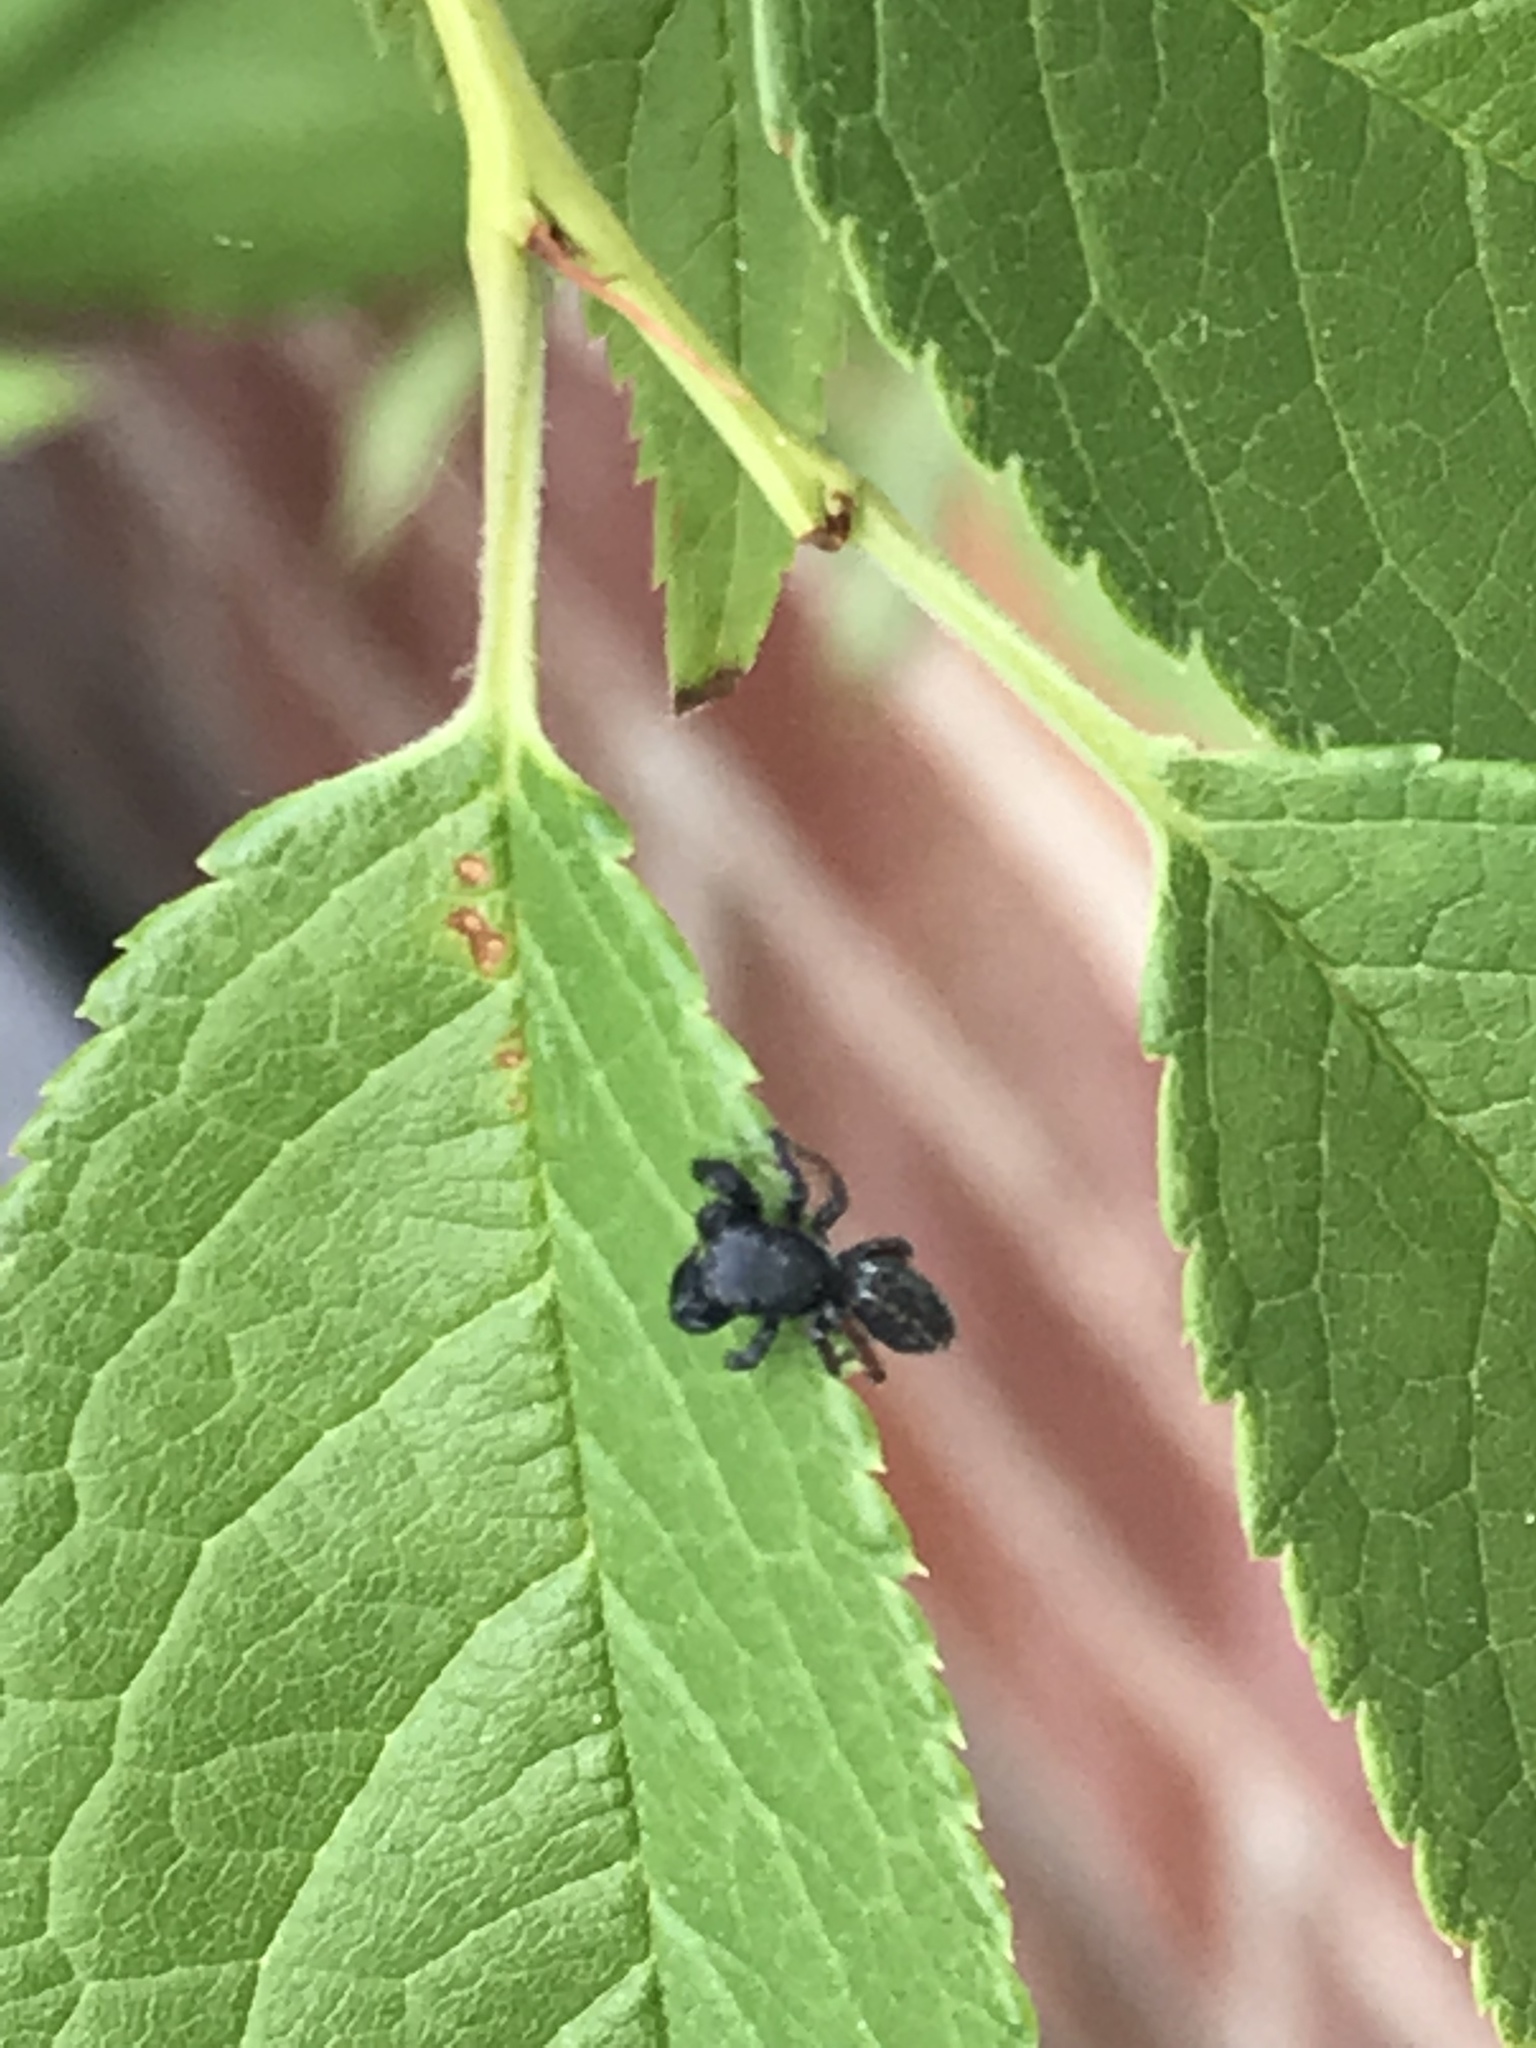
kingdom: Animalia
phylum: Arthropoda
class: Arachnida
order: Araneae
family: Salticidae
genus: Metacyrba
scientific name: Metacyrba taeniola
